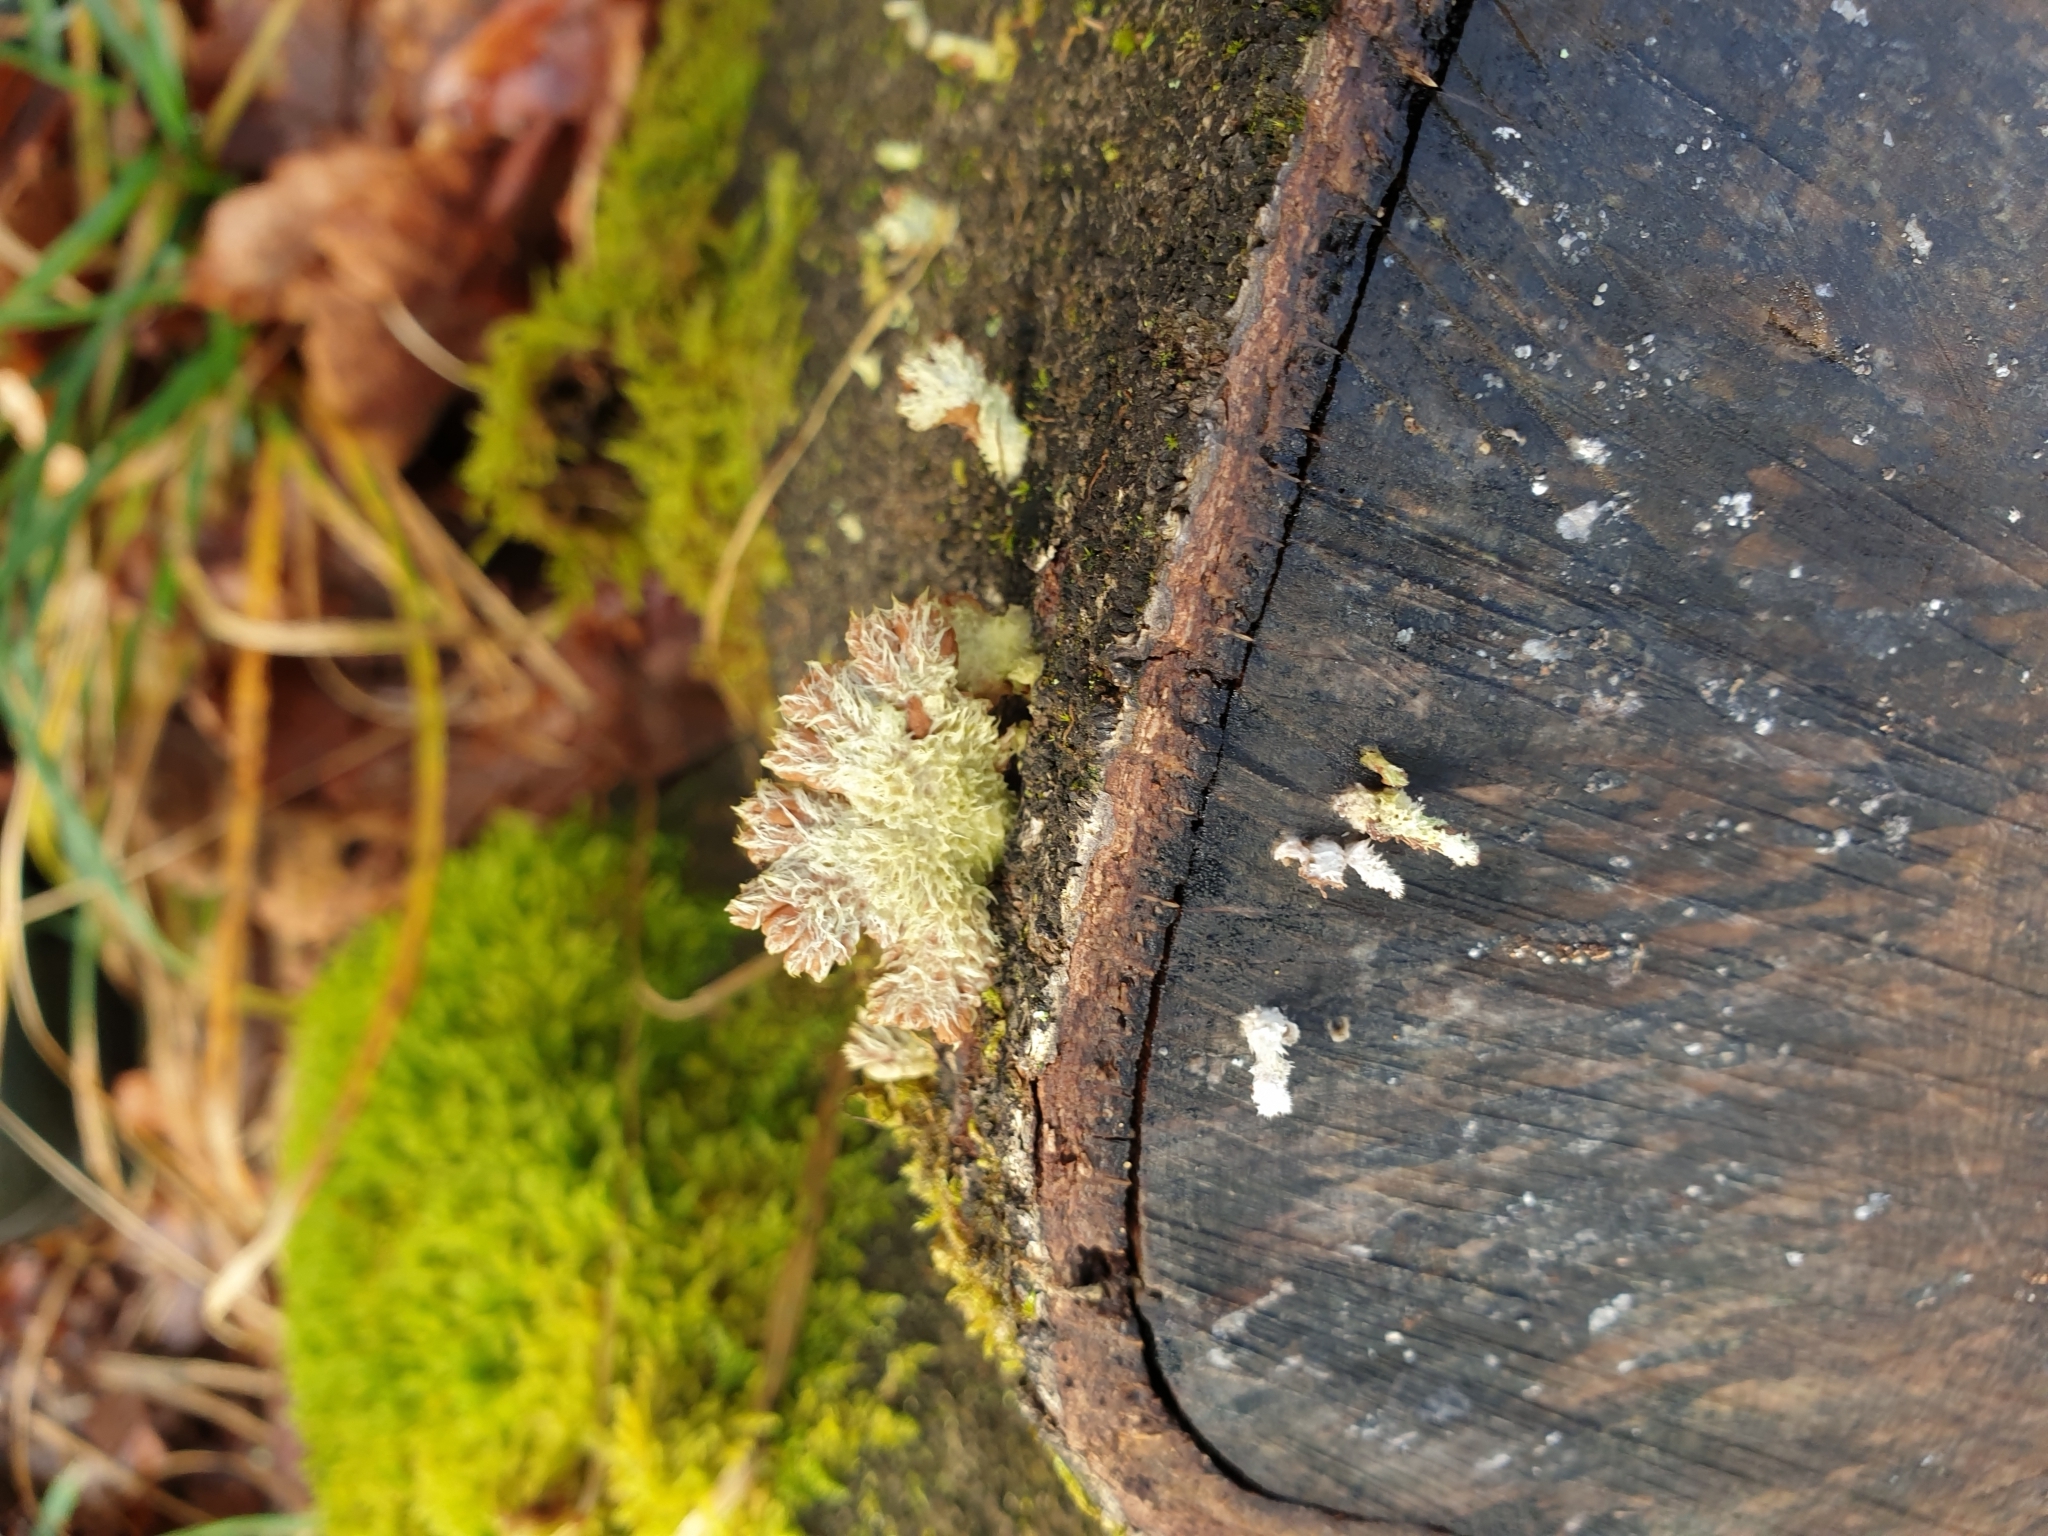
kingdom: Fungi
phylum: Basidiomycota
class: Agaricomycetes
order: Agaricales
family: Schizophyllaceae
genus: Schizophyllum
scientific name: Schizophyllum commune
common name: Common porecrust
